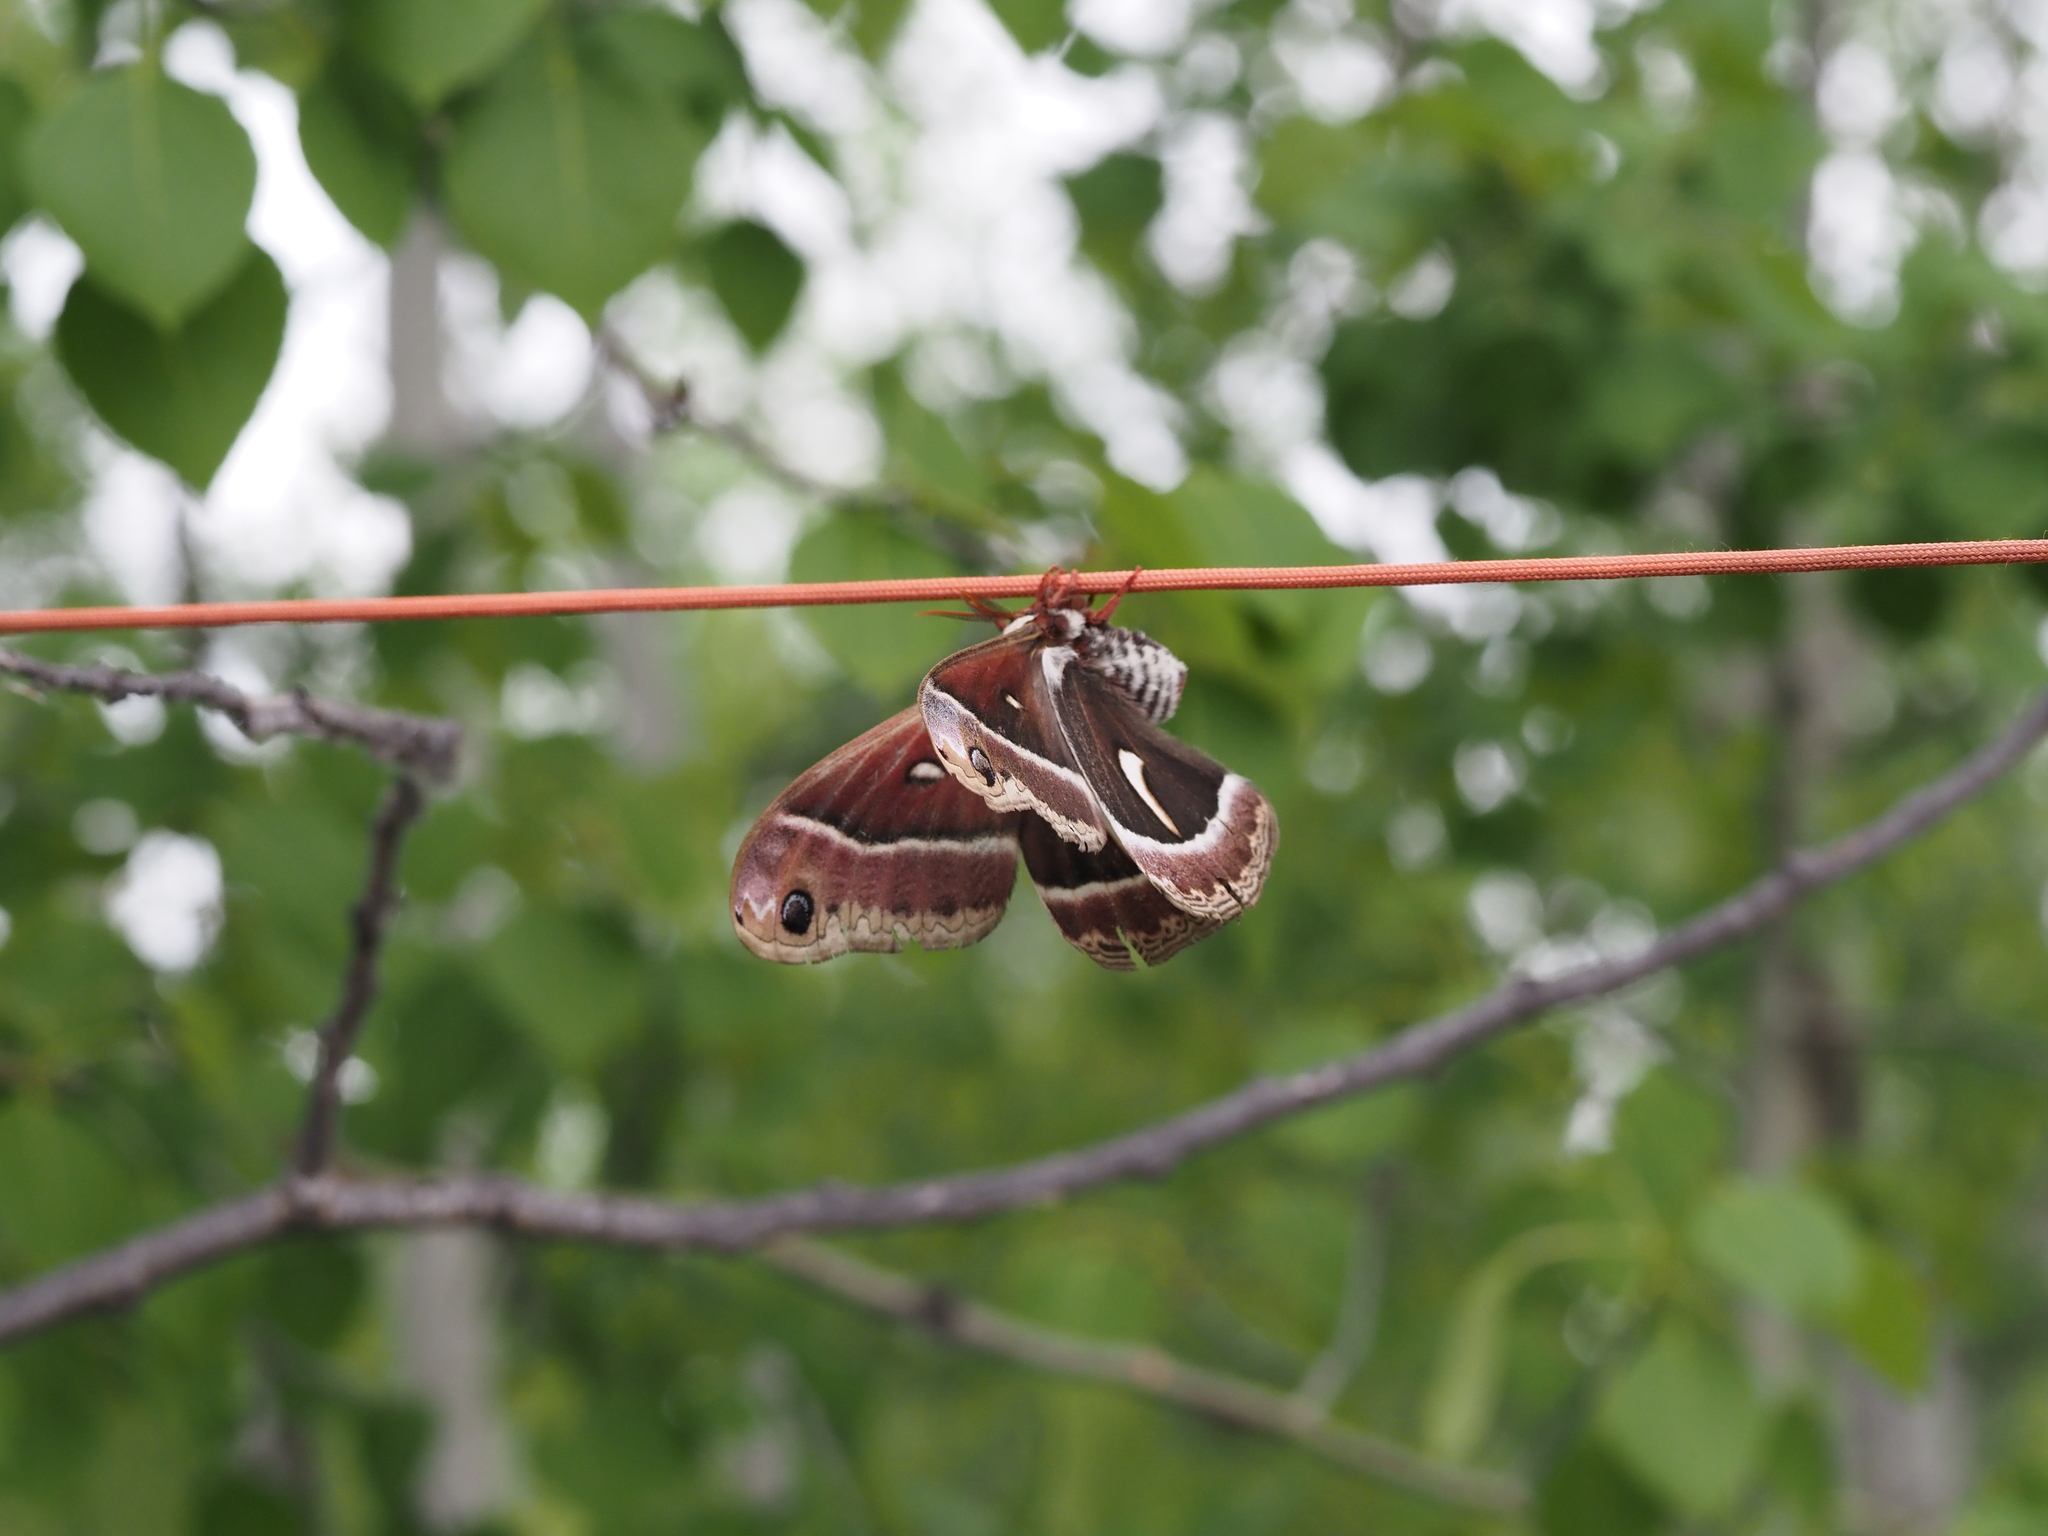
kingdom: Animalia
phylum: Arthropoda
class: Insecta
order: Lepidoptera
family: Saturniidae
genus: Hyalophora
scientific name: Hyalophora euryalus
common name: Ceanothus silkmoth
